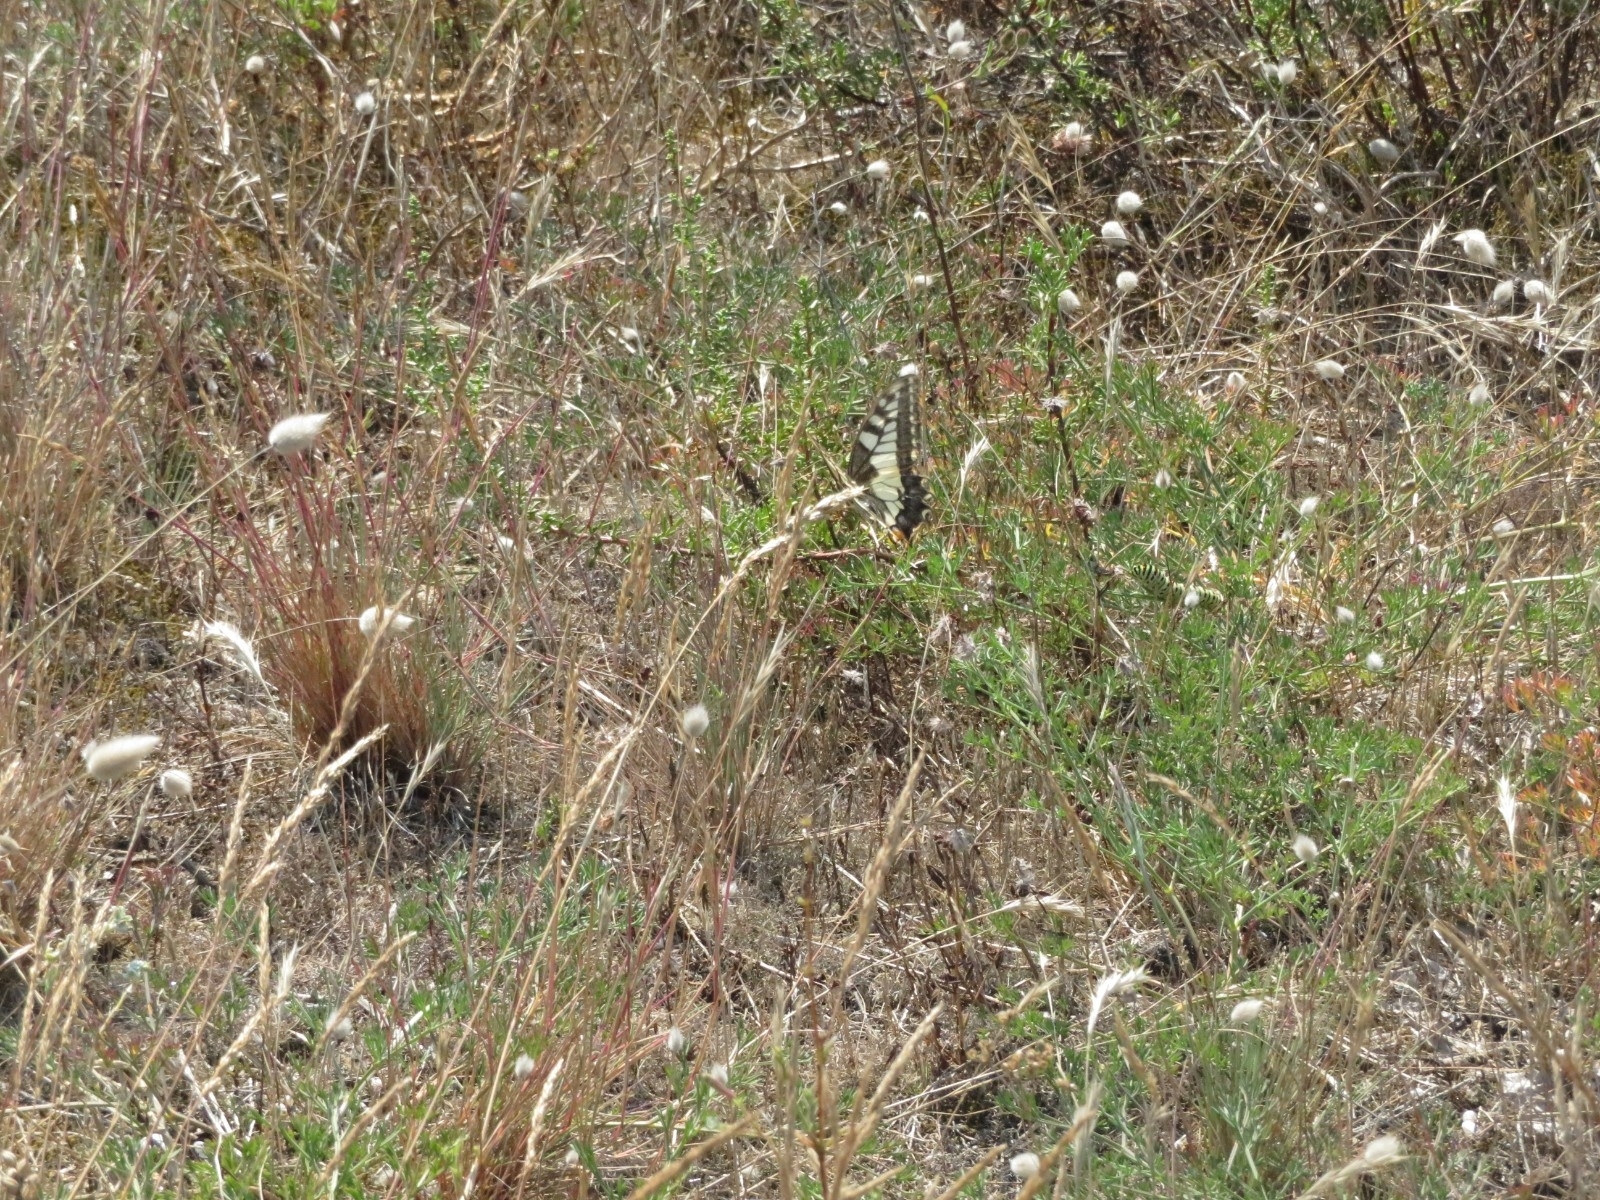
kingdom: Animalia
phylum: Arthropoda
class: Insecta
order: Lepidoptera
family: Papilionidae
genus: Papilio
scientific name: Papilio machaon
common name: Swallowtail
